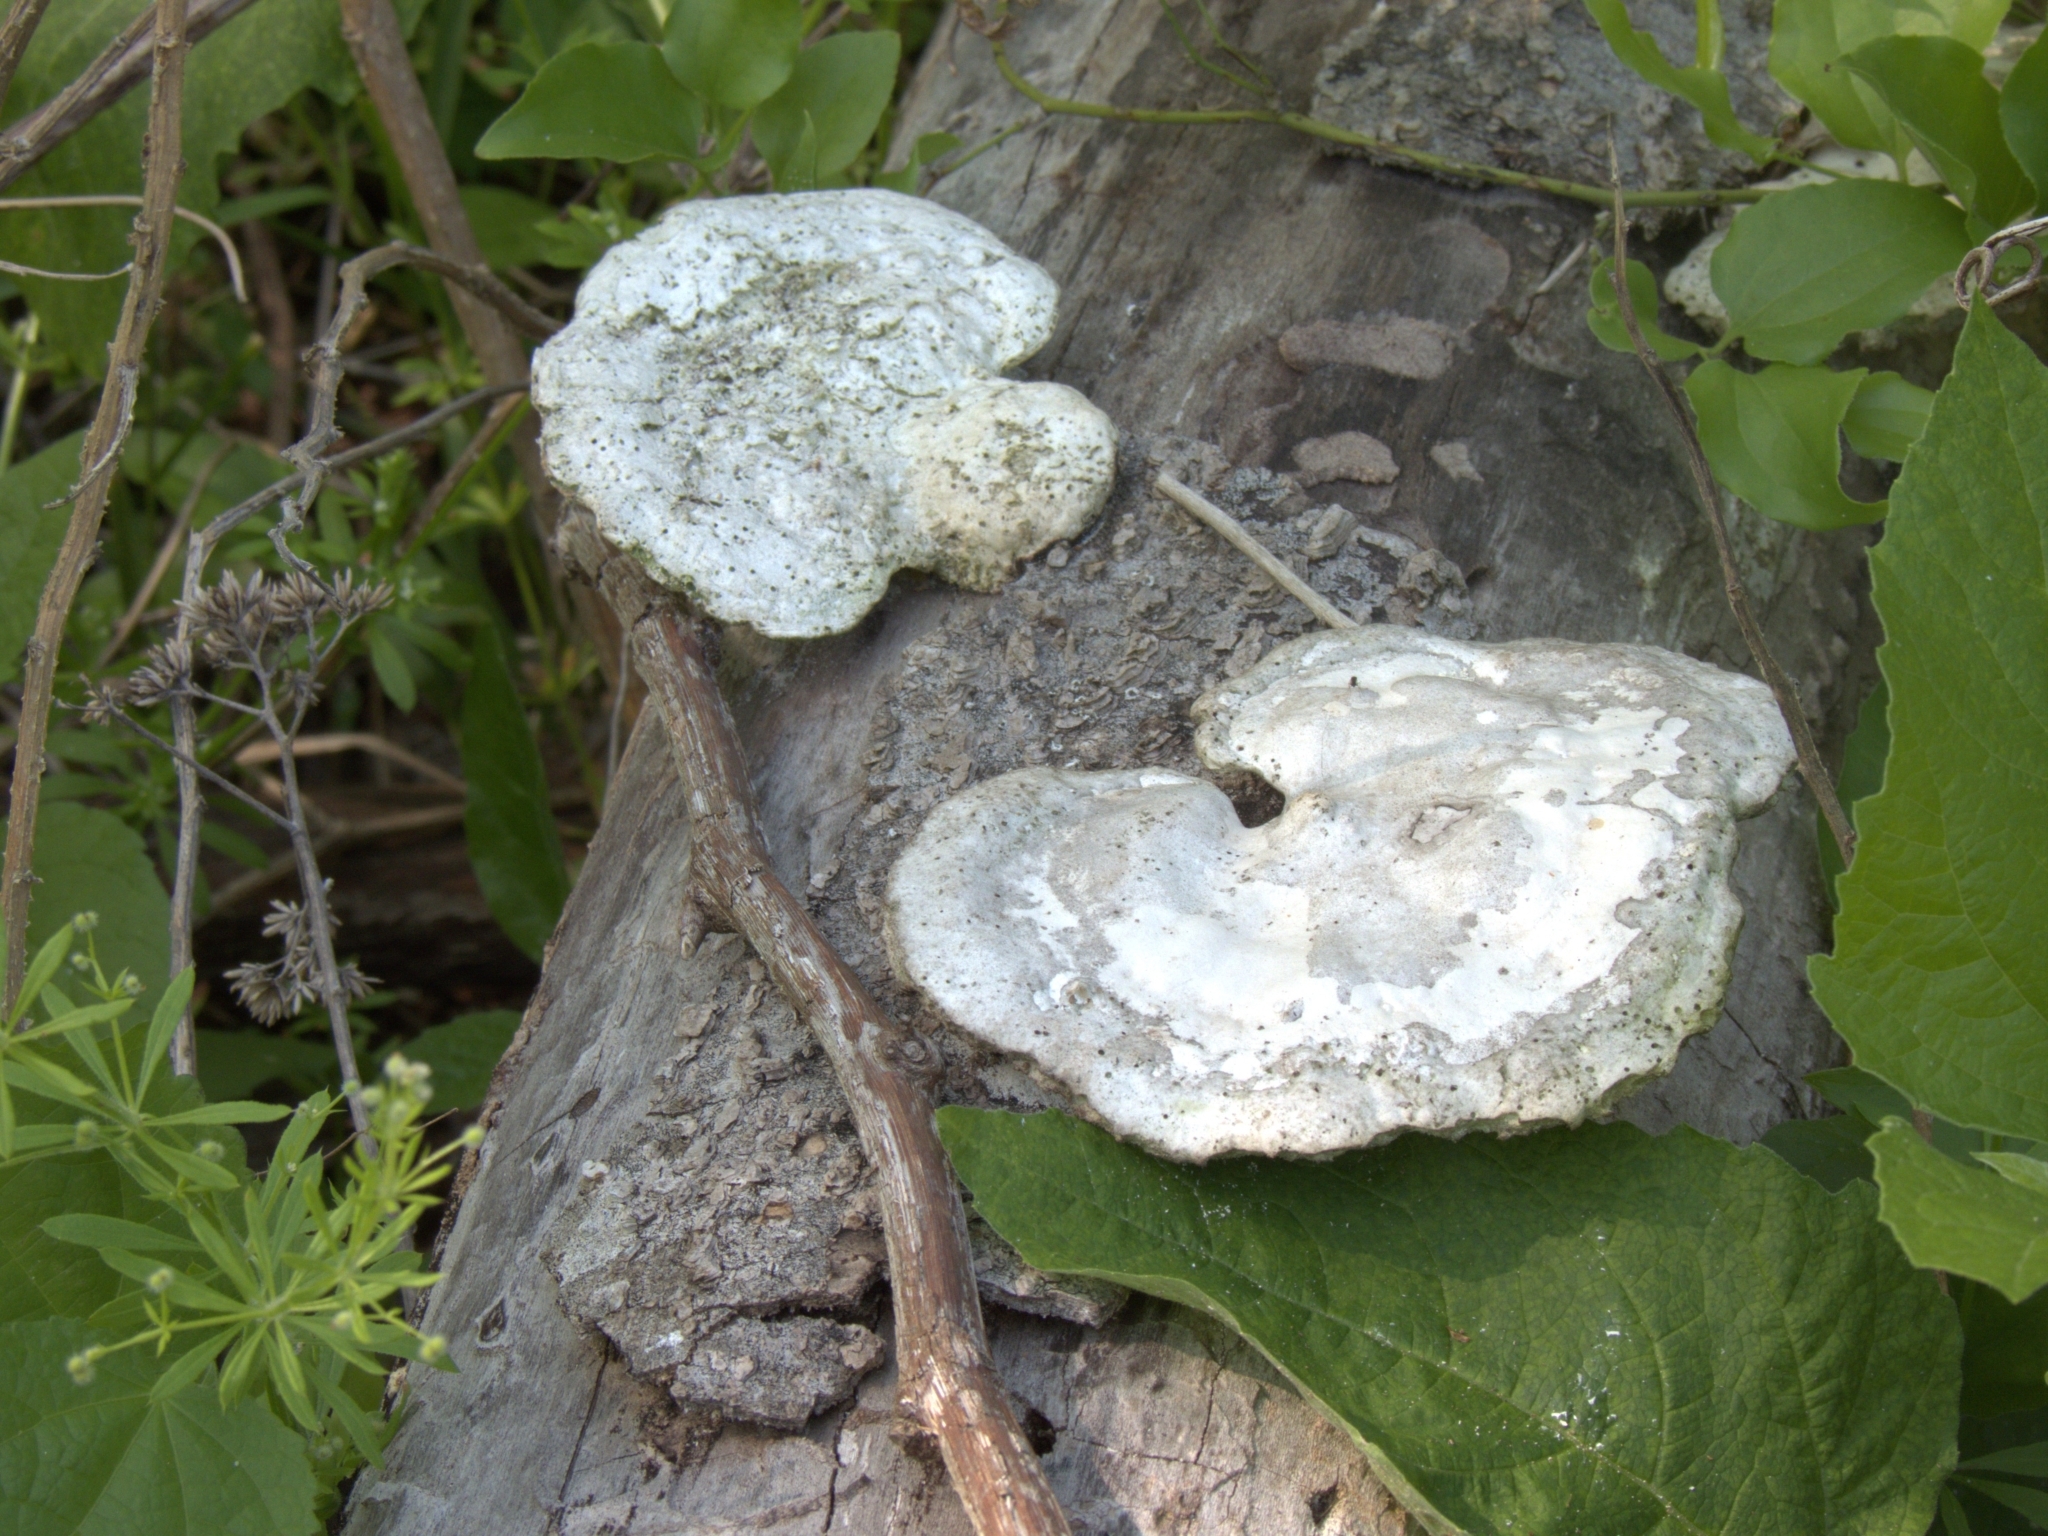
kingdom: Fungi
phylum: Basidiomycota
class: Agaricomycetes
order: Polyporales
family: Polyporaceae
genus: Trametes
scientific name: Trametes
